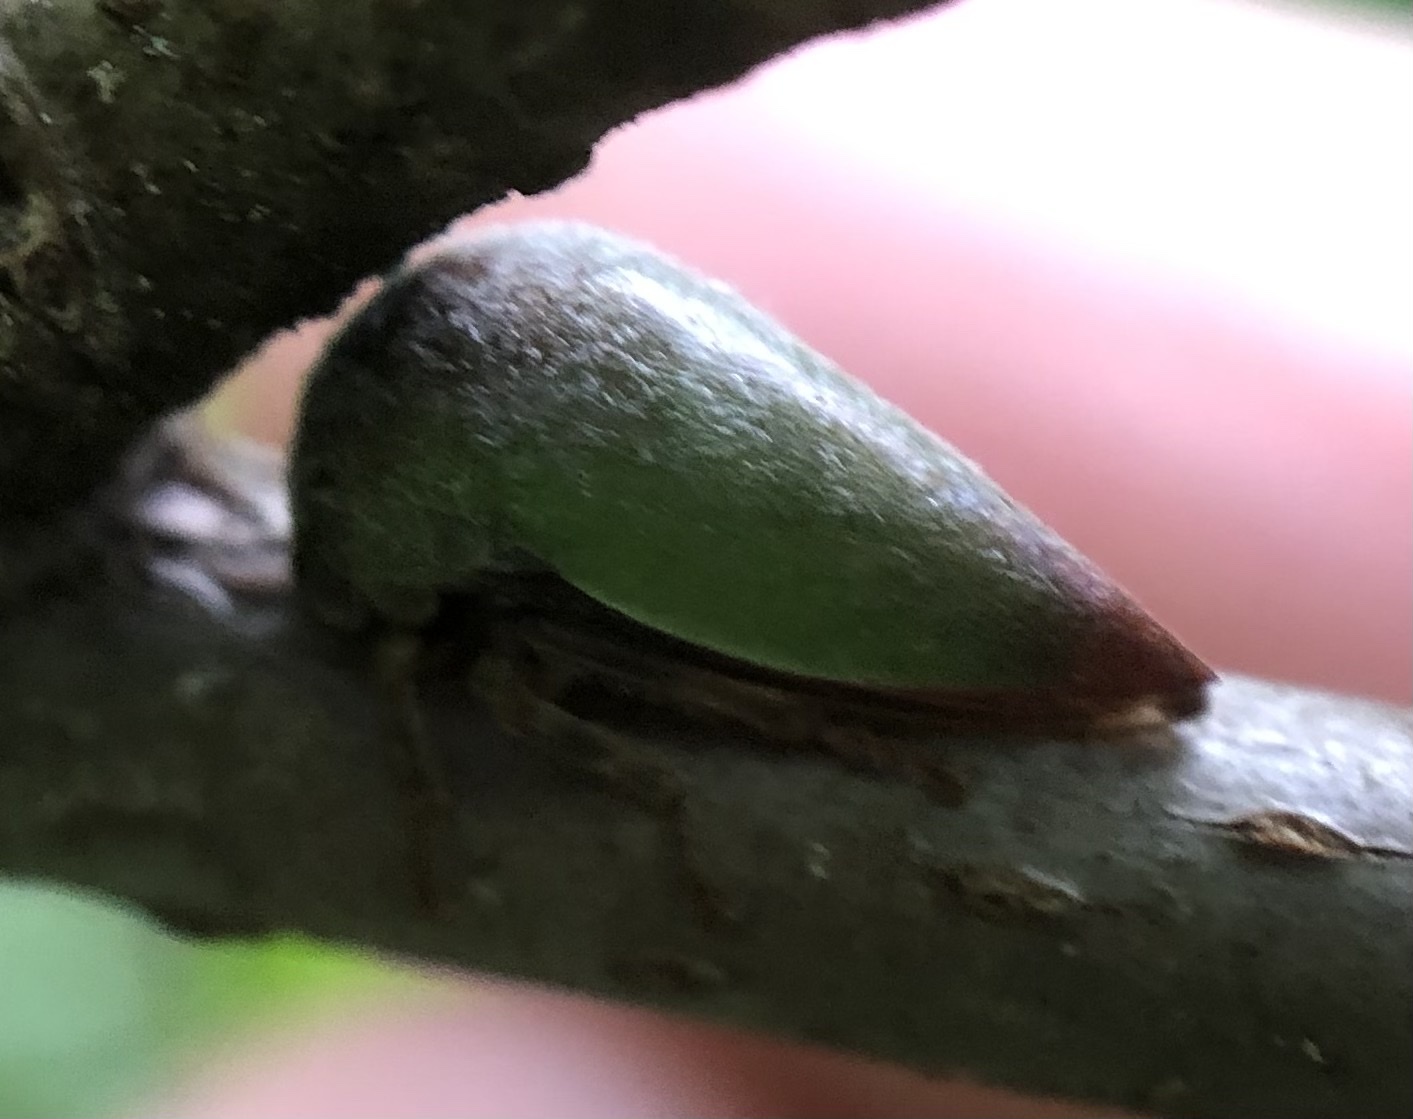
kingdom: Animalia
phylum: Arthropoda
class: Insecta
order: Hemiptera
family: Membracidae
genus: Hebetica
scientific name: Hebetica
